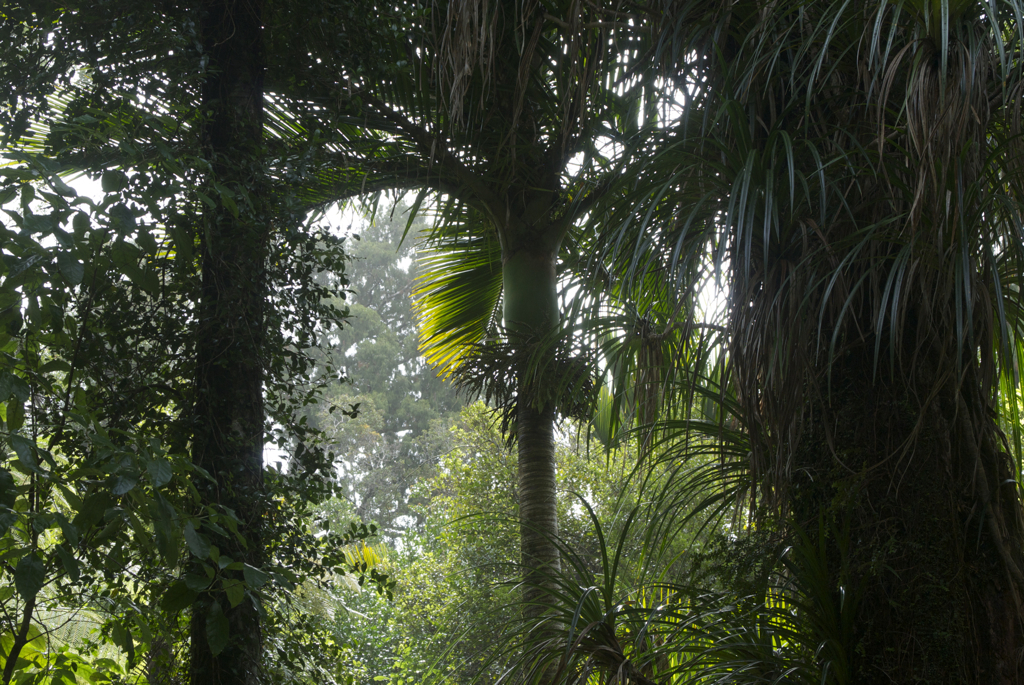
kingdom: Plantae
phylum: Tracheophyta
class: Liliopsida
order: Pandanales
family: Pandanaceae
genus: Freycinetia
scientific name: Freycinetia banksii
